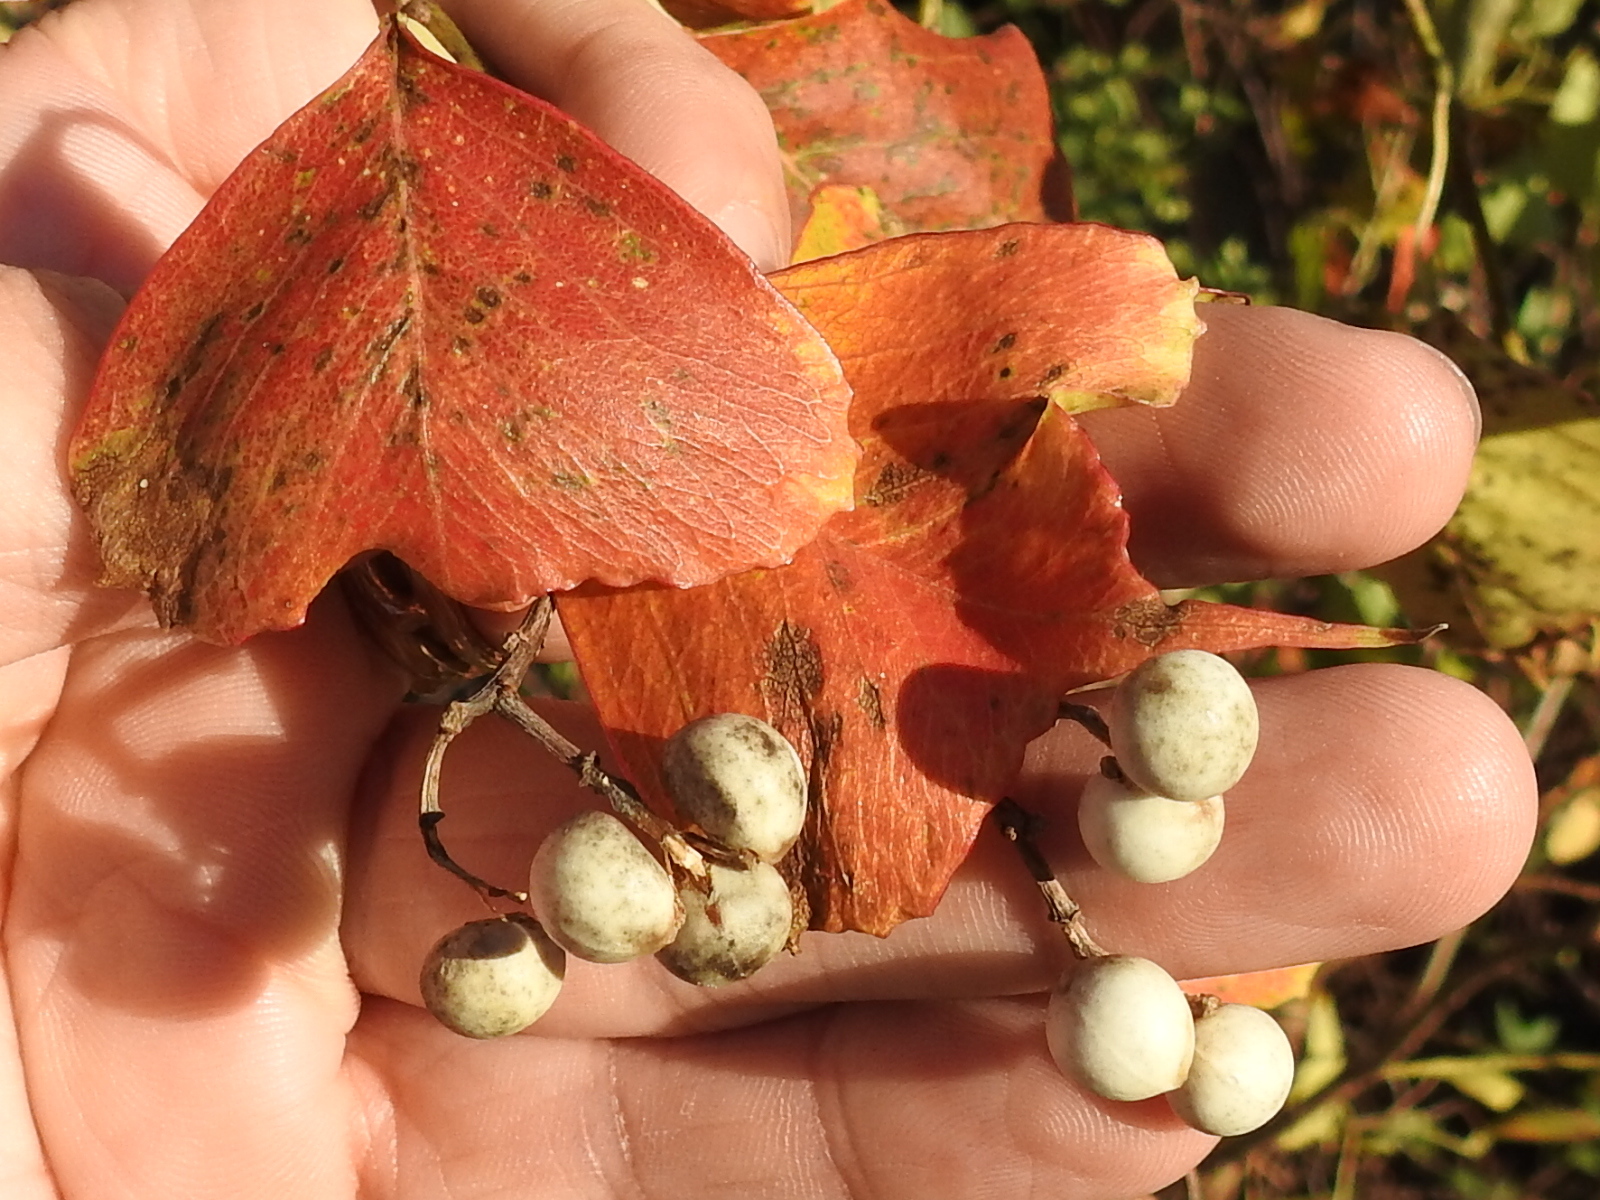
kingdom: Plantae
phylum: Tracheophyta
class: Magnoliopsida
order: Malpighiales
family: Euphorbiaceae
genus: Triadica
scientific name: Triadica sebifera
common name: Chinese tallow
